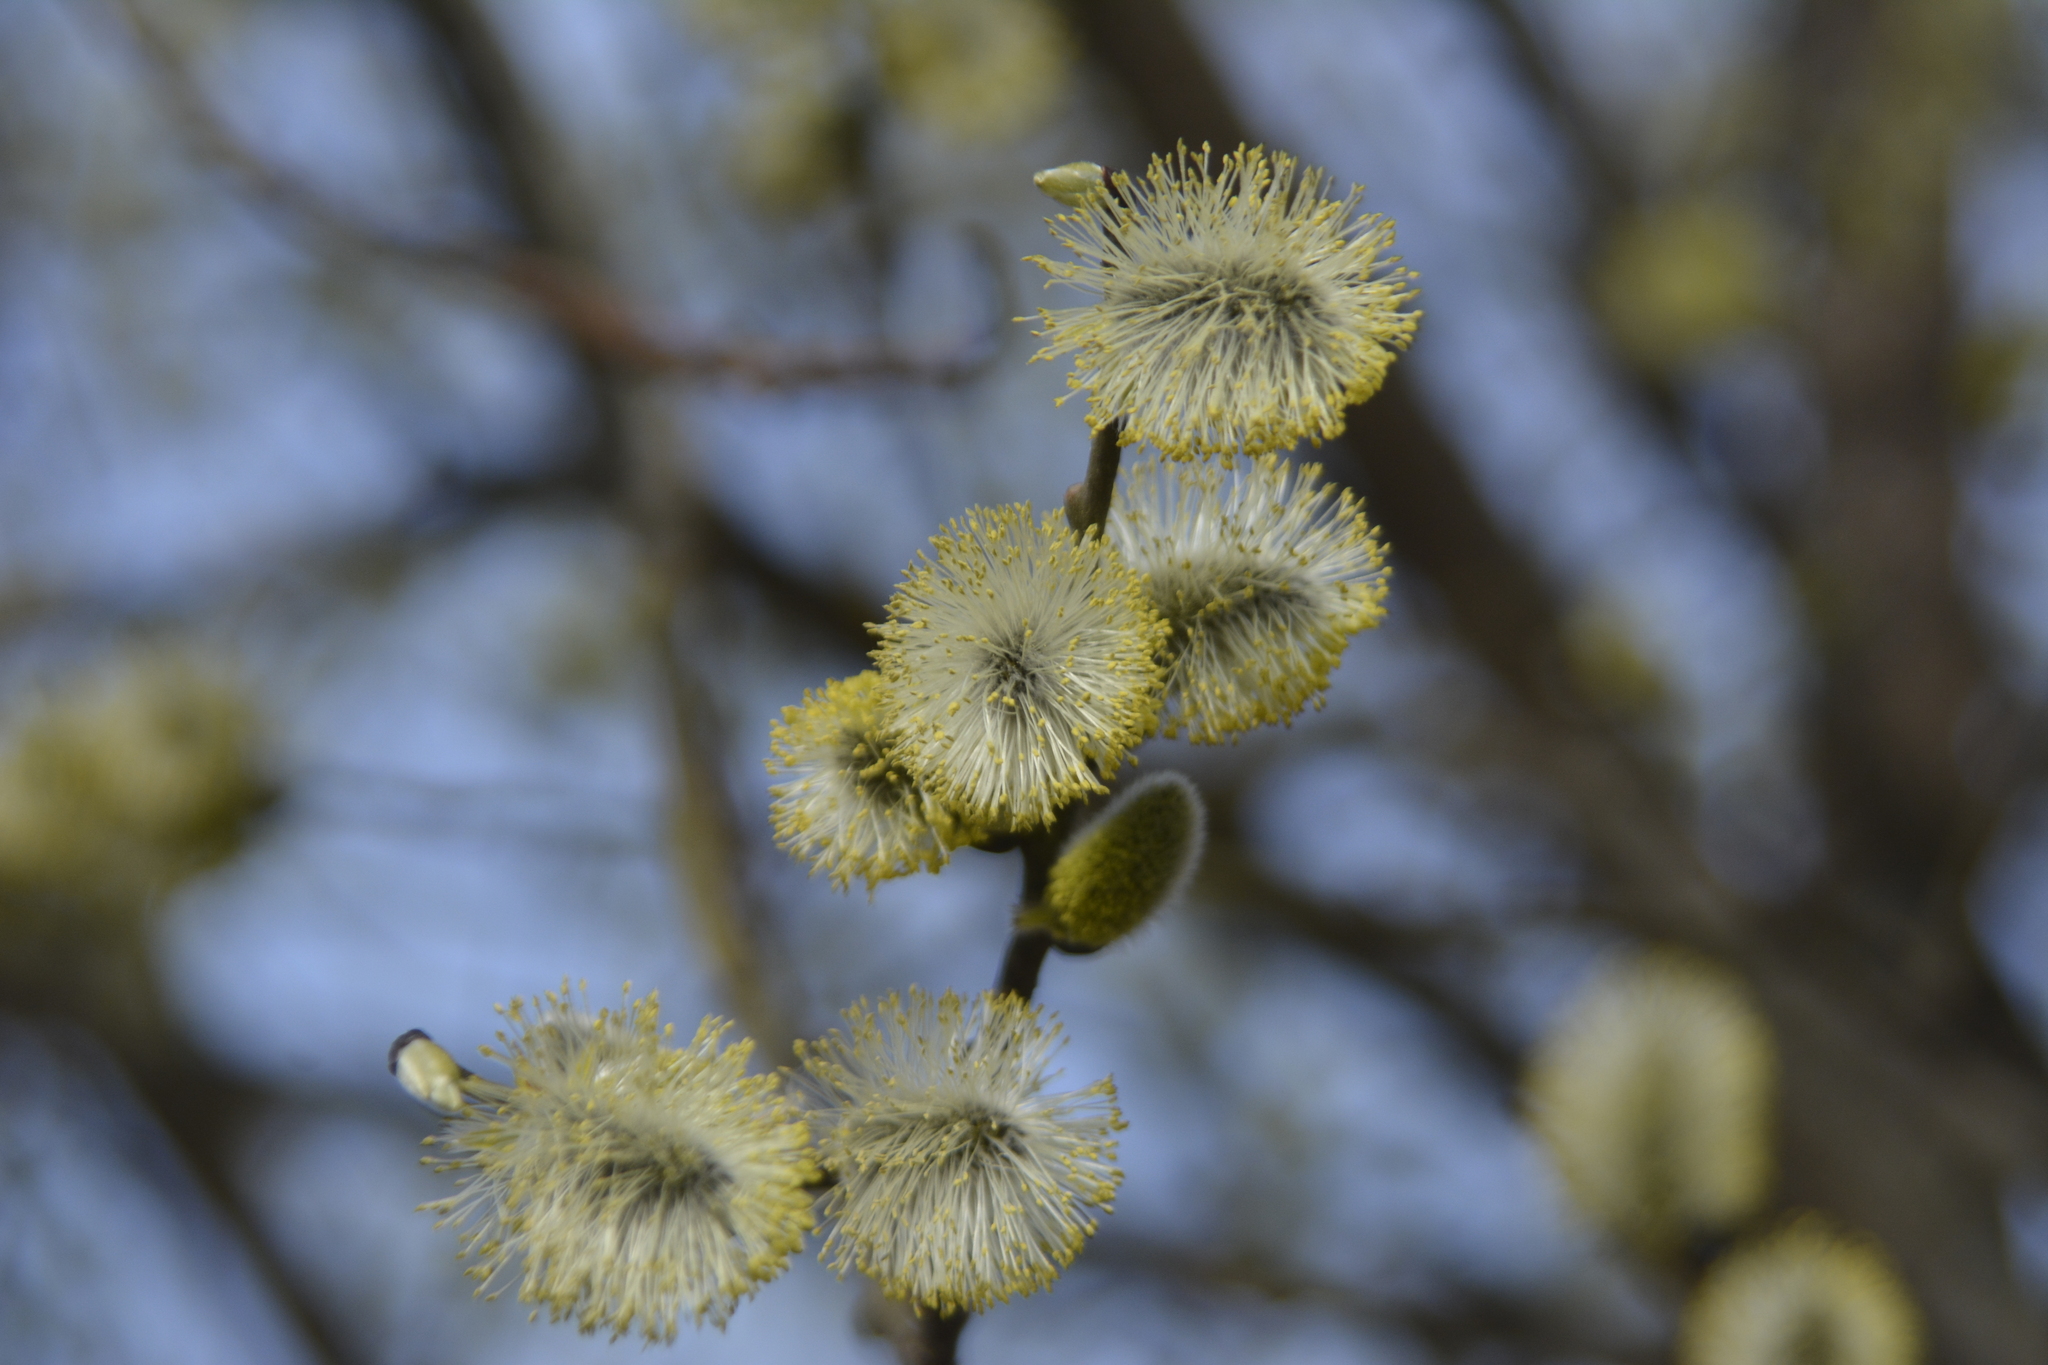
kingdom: Plantae
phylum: Tracheophyta
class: Magnoliopsida
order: Malpighiales
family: Salicaceae
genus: Salix
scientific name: Salix caprea
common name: Goat willow
